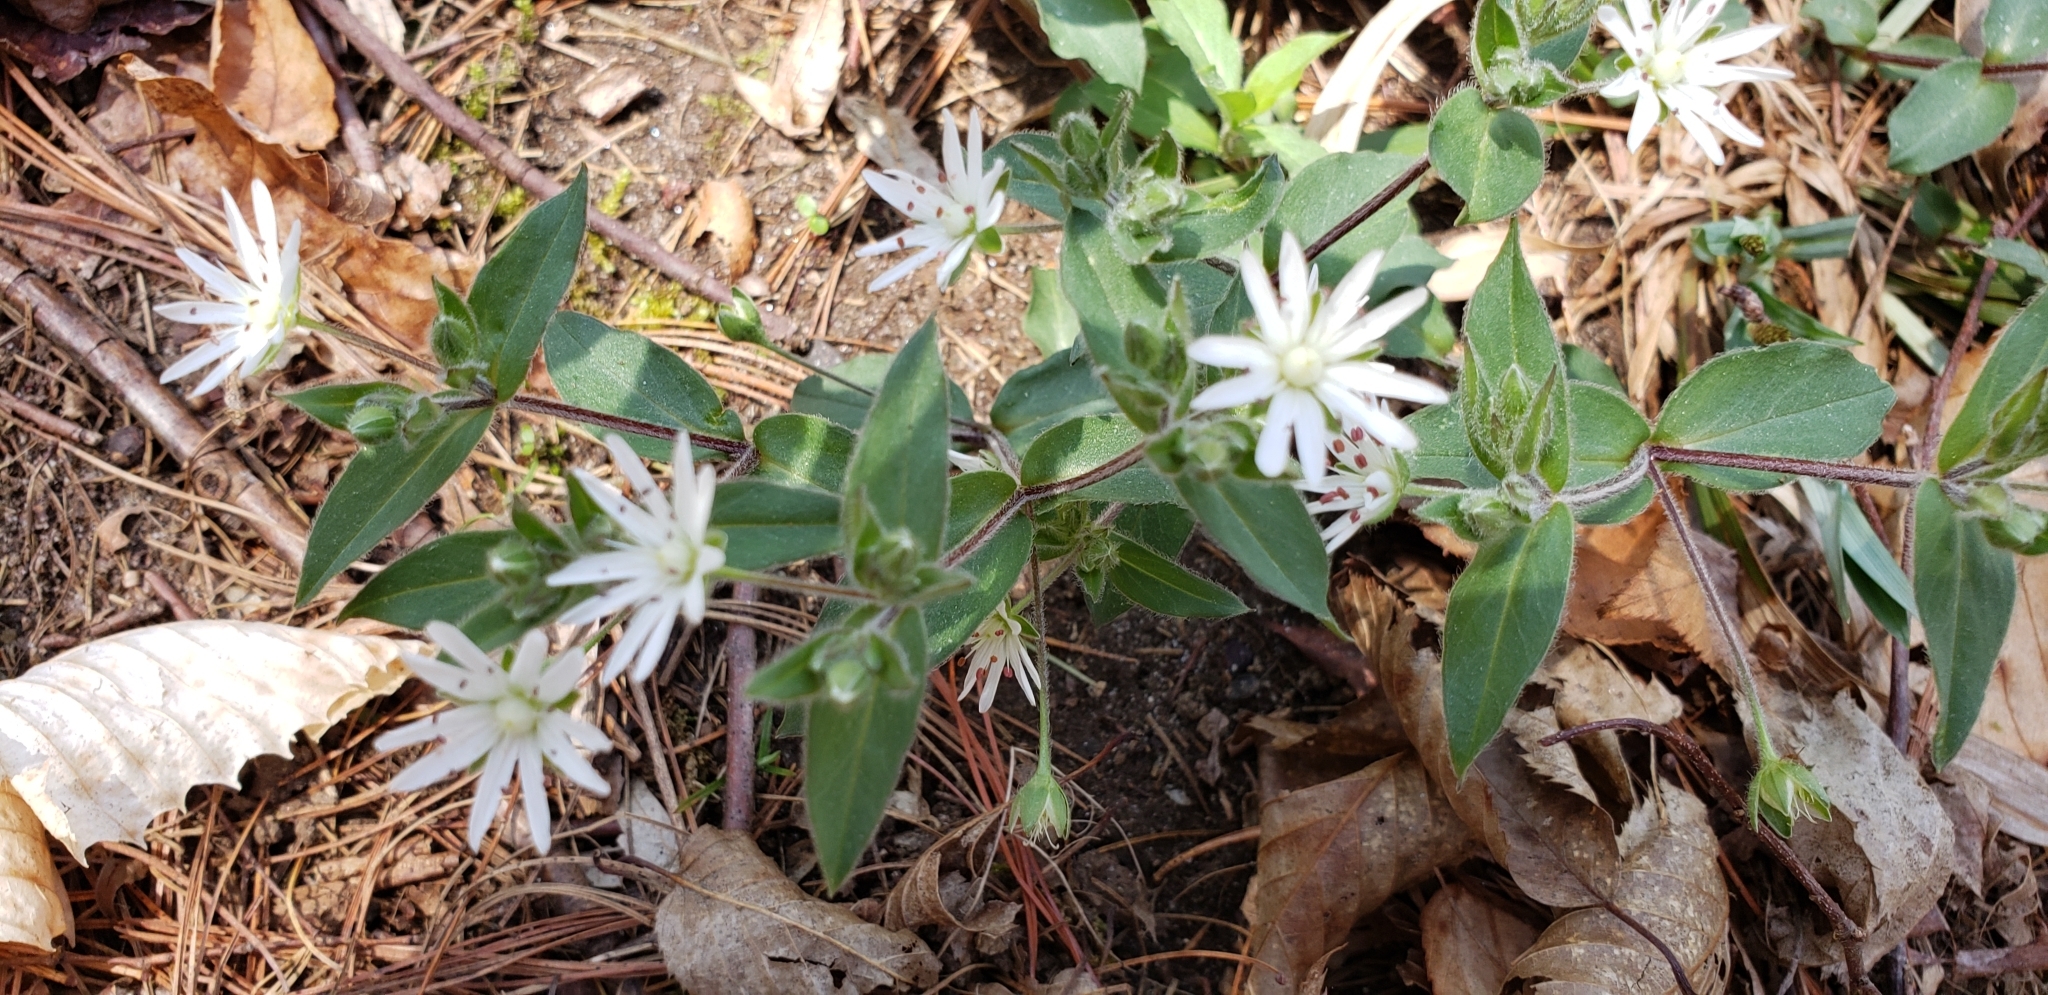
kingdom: Plantae
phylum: Tracheophyta
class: Magnoliopsida
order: Caryophyllales
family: Caryophyllaceae
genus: Stellaria
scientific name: Stellaria pubera
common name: Star chickweed
